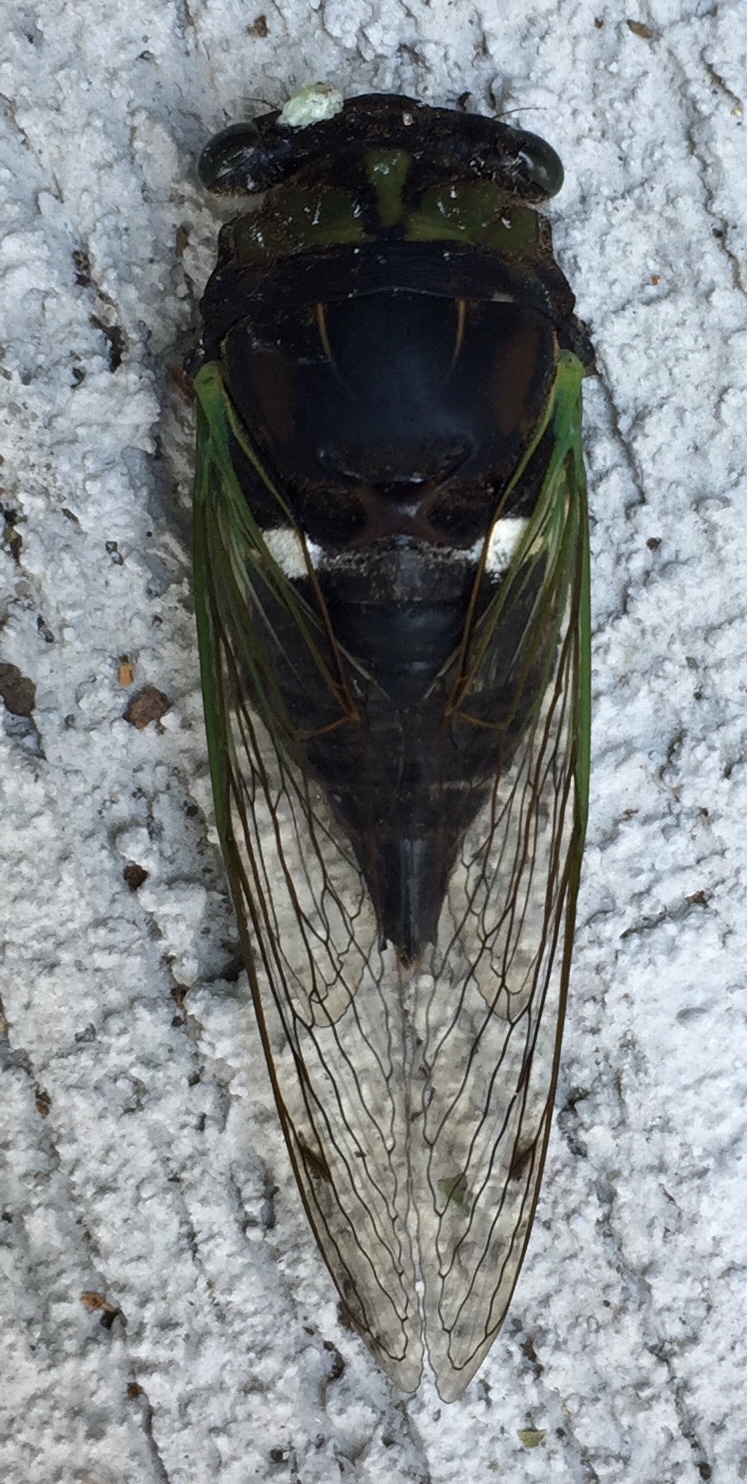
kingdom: Animalia
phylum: Arthropoda
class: Insecta
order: Hemiptera
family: Cicadidae
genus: Neotibicen
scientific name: Neotibicen tibicen
